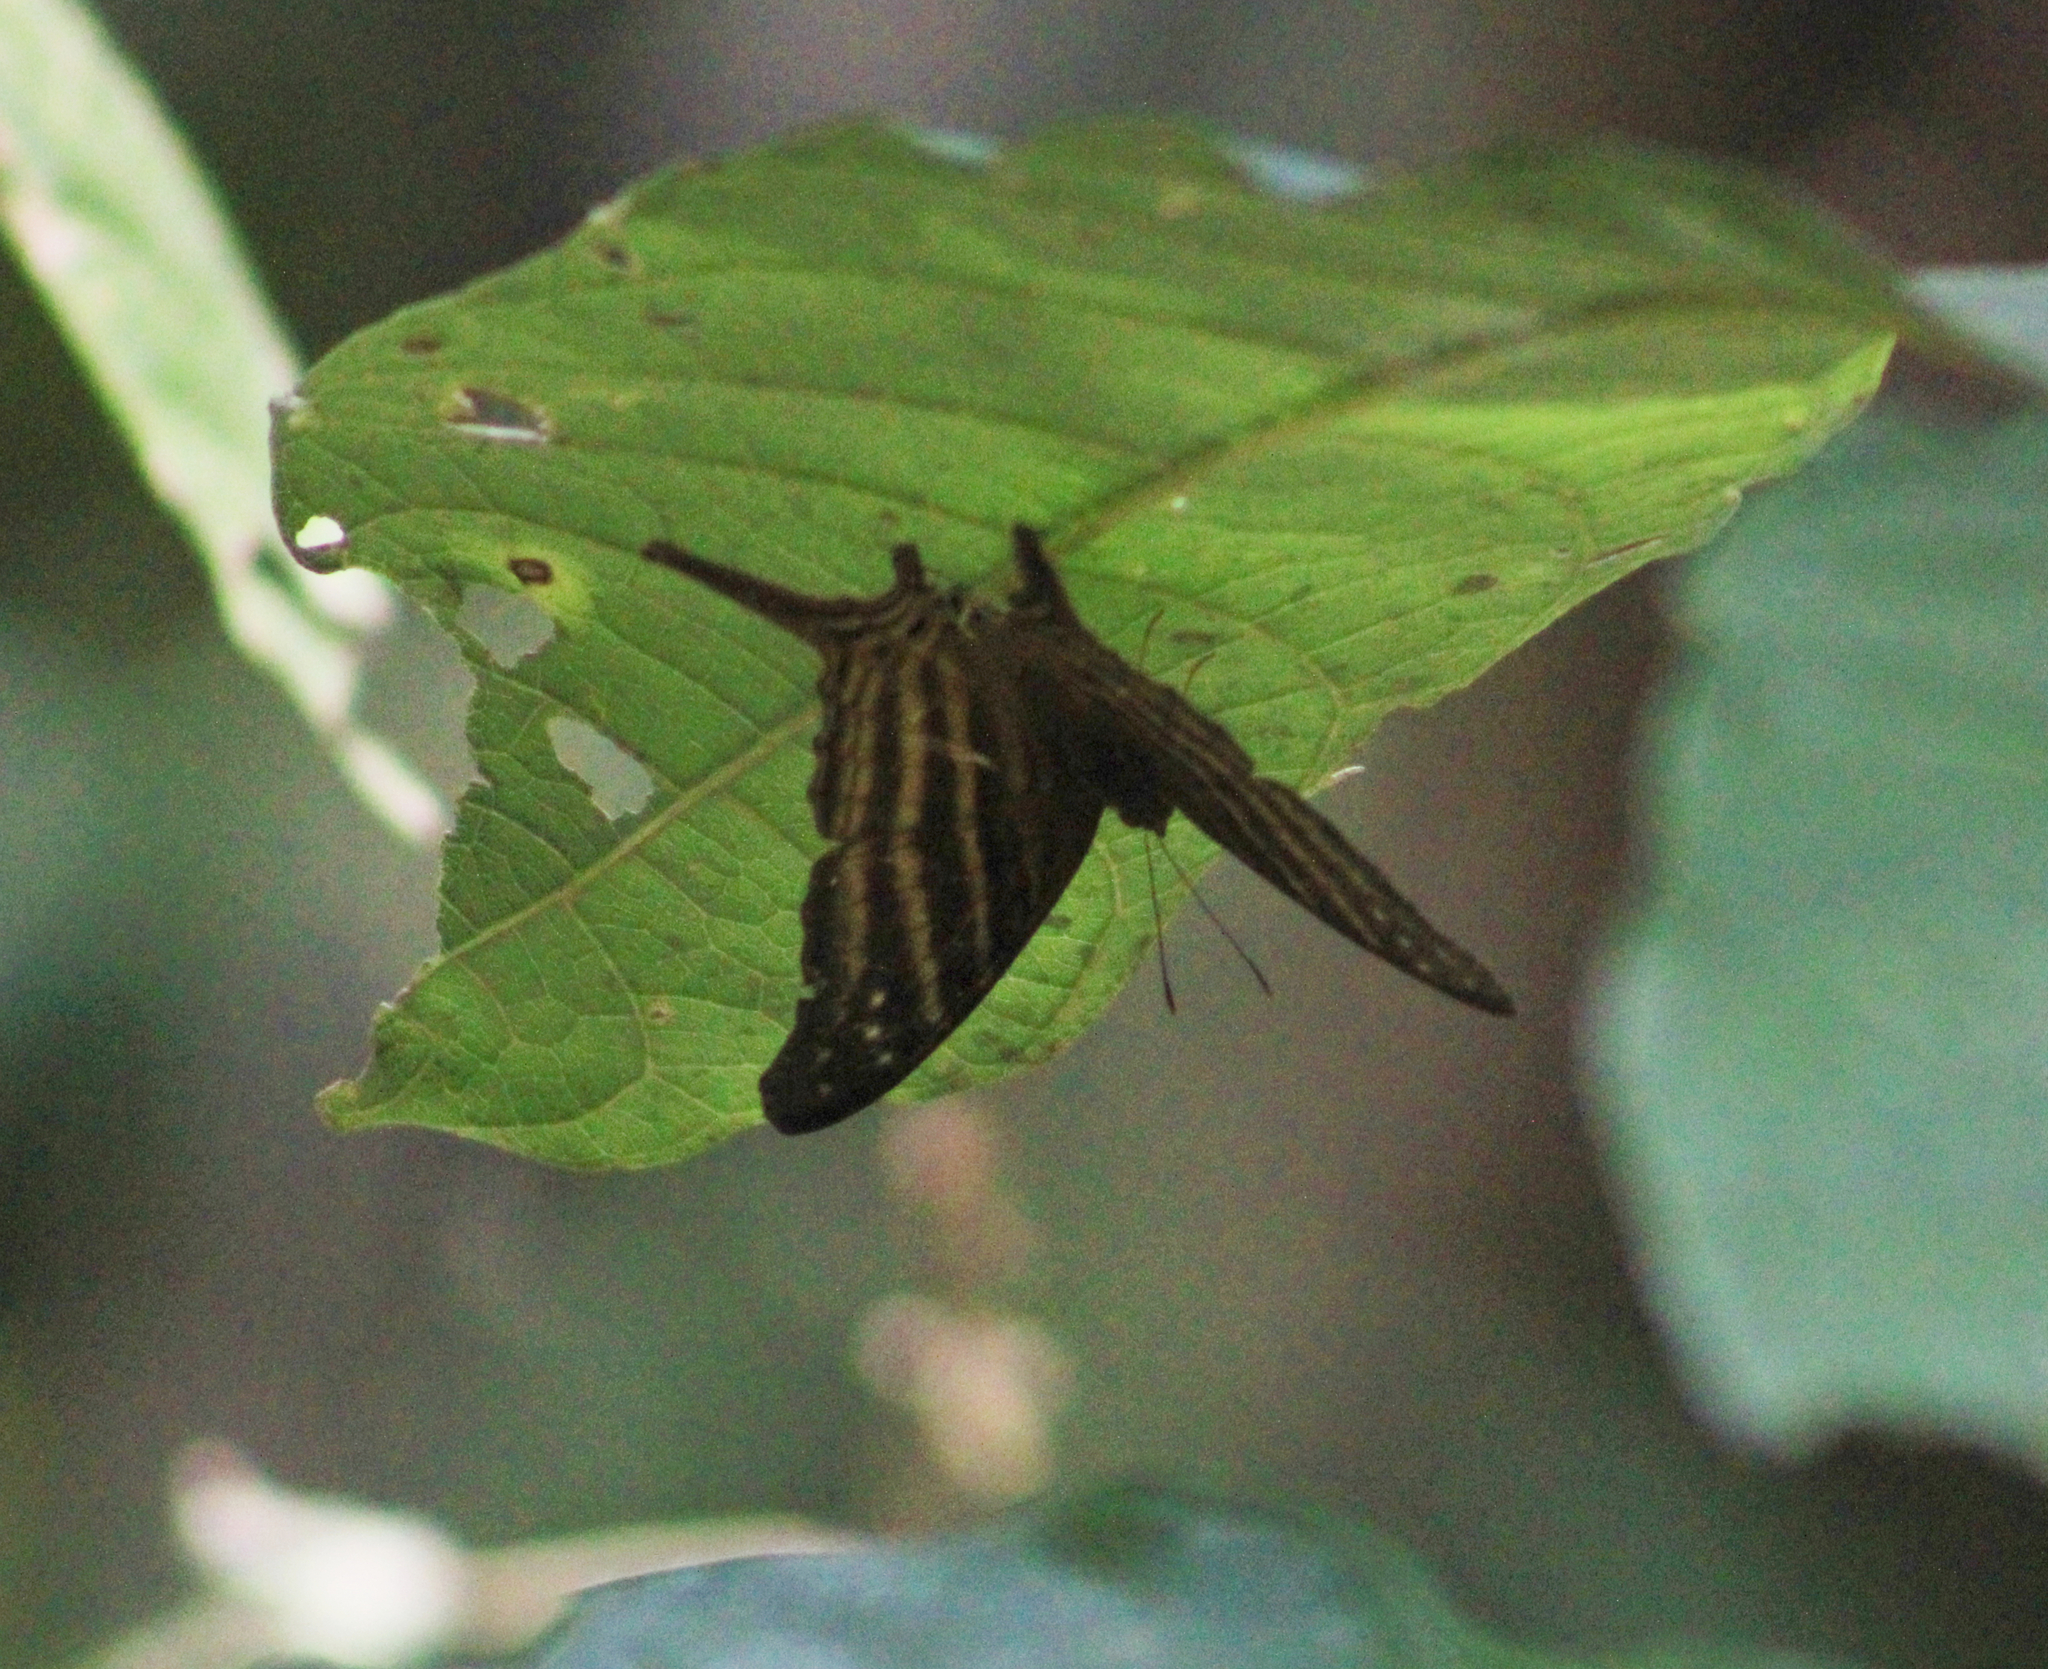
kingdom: Animalia
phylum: Arthropoda
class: Insecta
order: Lepidoptera
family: Nymphalidae
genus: Marpesia
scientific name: Marpesia chiron
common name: Many-banded daggerwing
